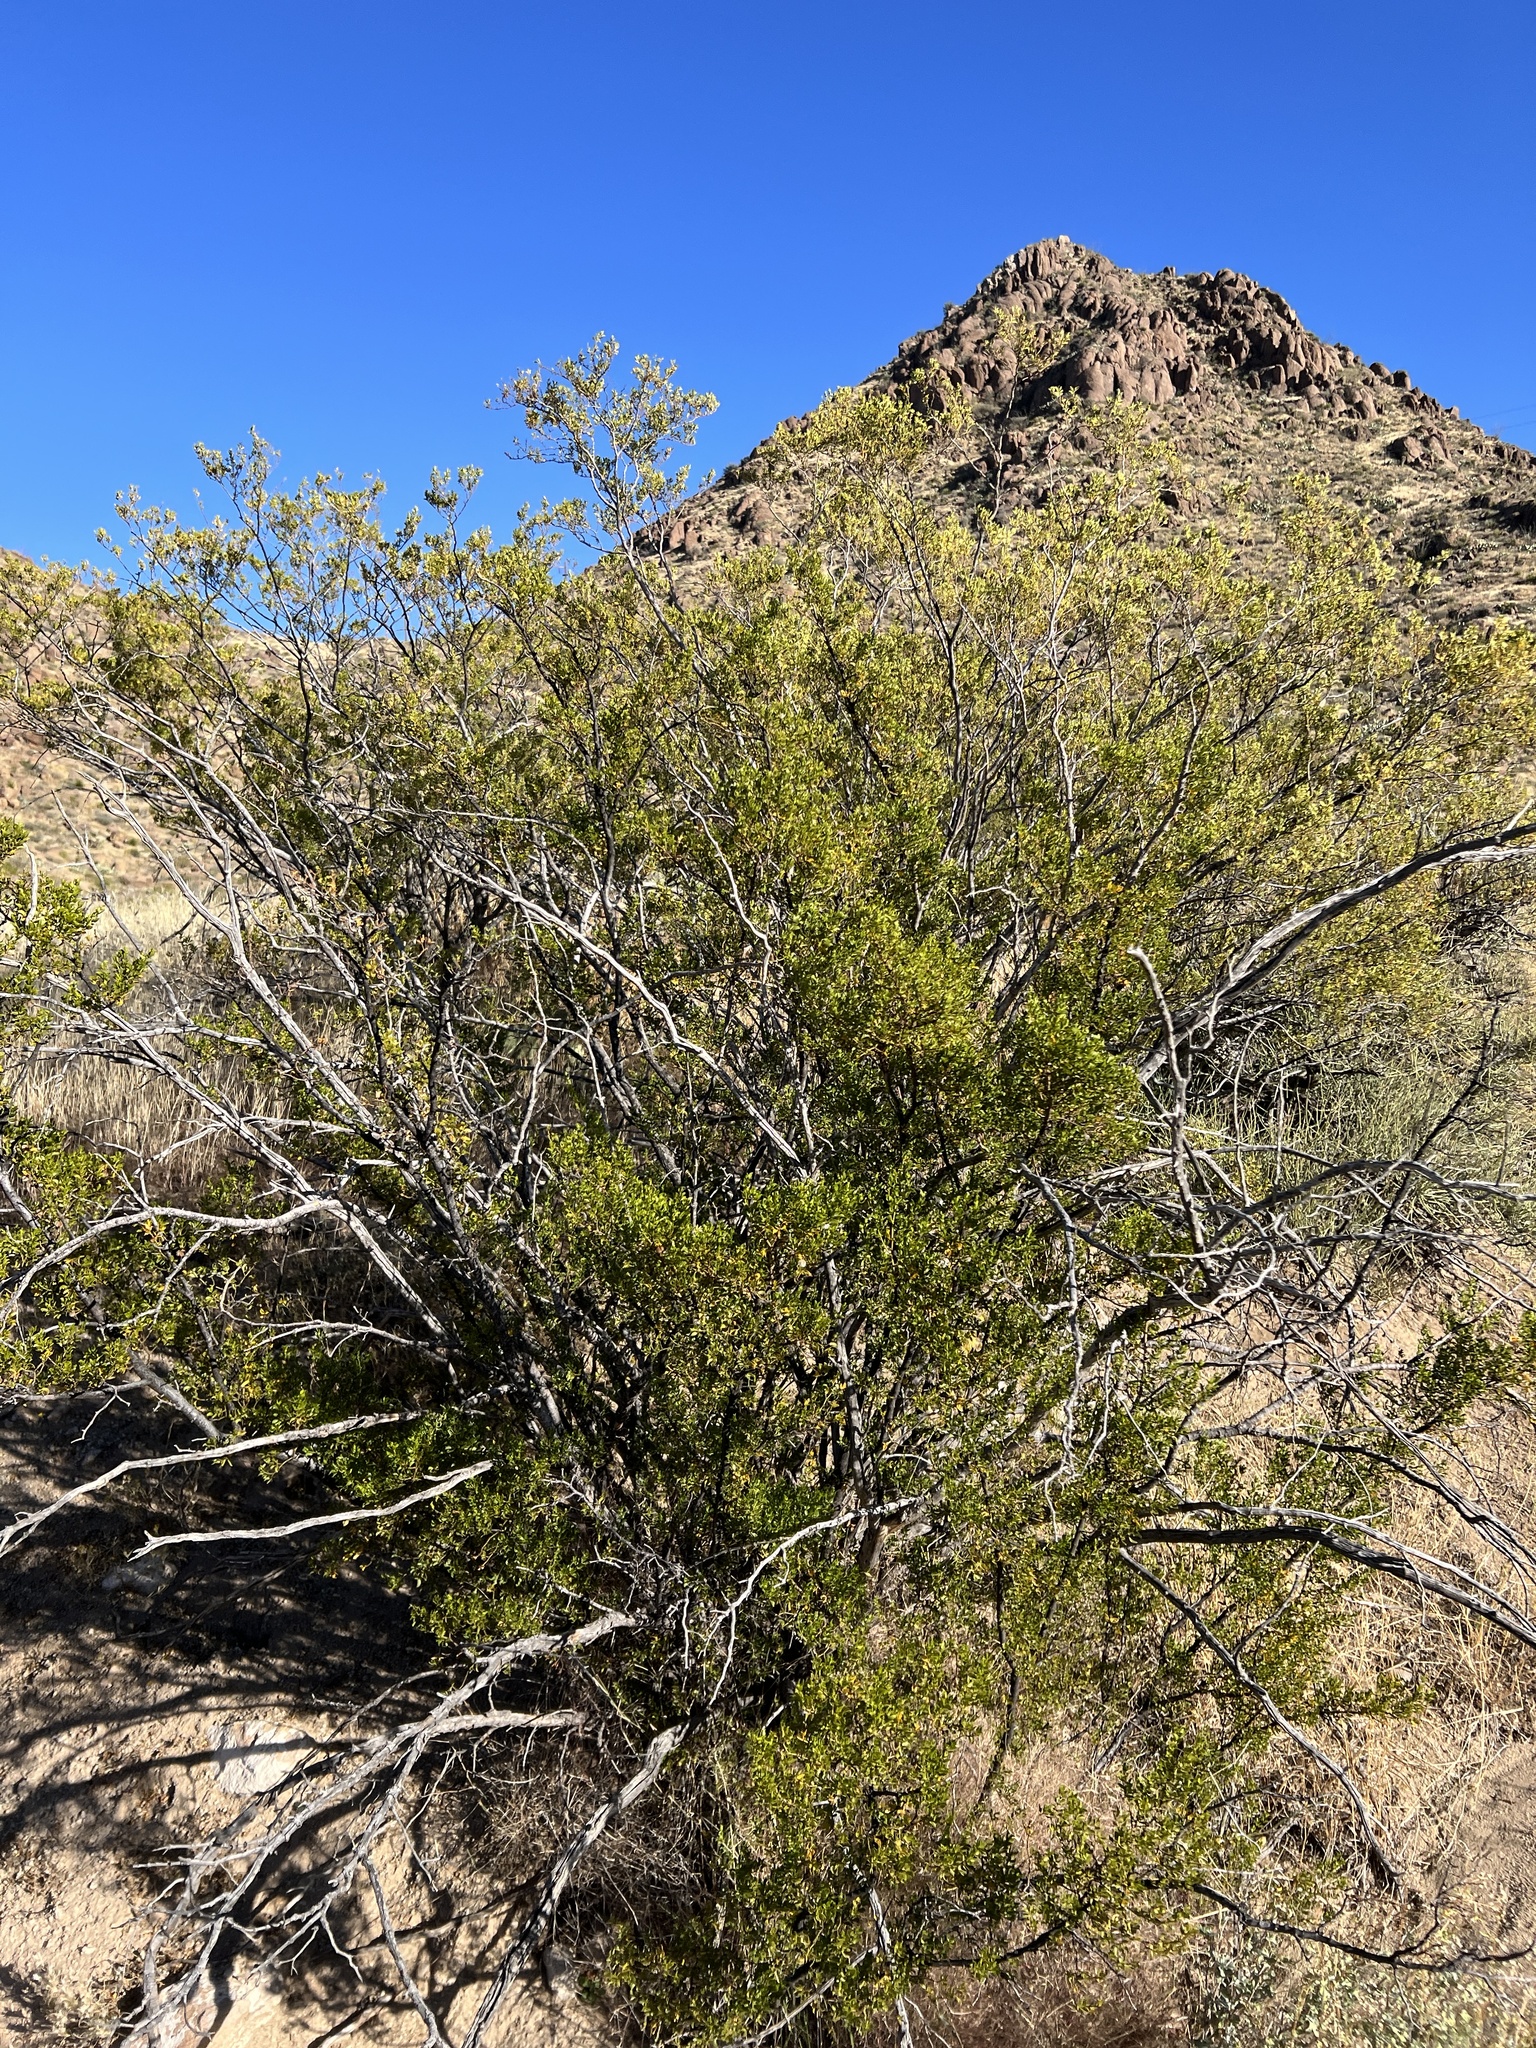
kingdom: Plantae
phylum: Tracheophyta
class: Magnoliopsida
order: Zygophyllales
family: Zygophyllaceae
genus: Larrea
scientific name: Larrea tridentata
